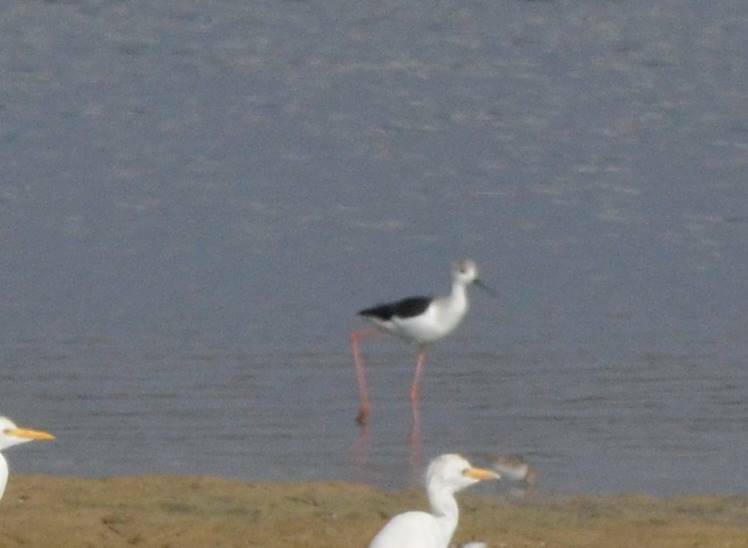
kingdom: Animalia
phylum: Chordata
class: Aves
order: Charadriiformes
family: Recurvirostridae
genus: Himantopus
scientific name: Himantopus himantopus
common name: Black-winged stilt
